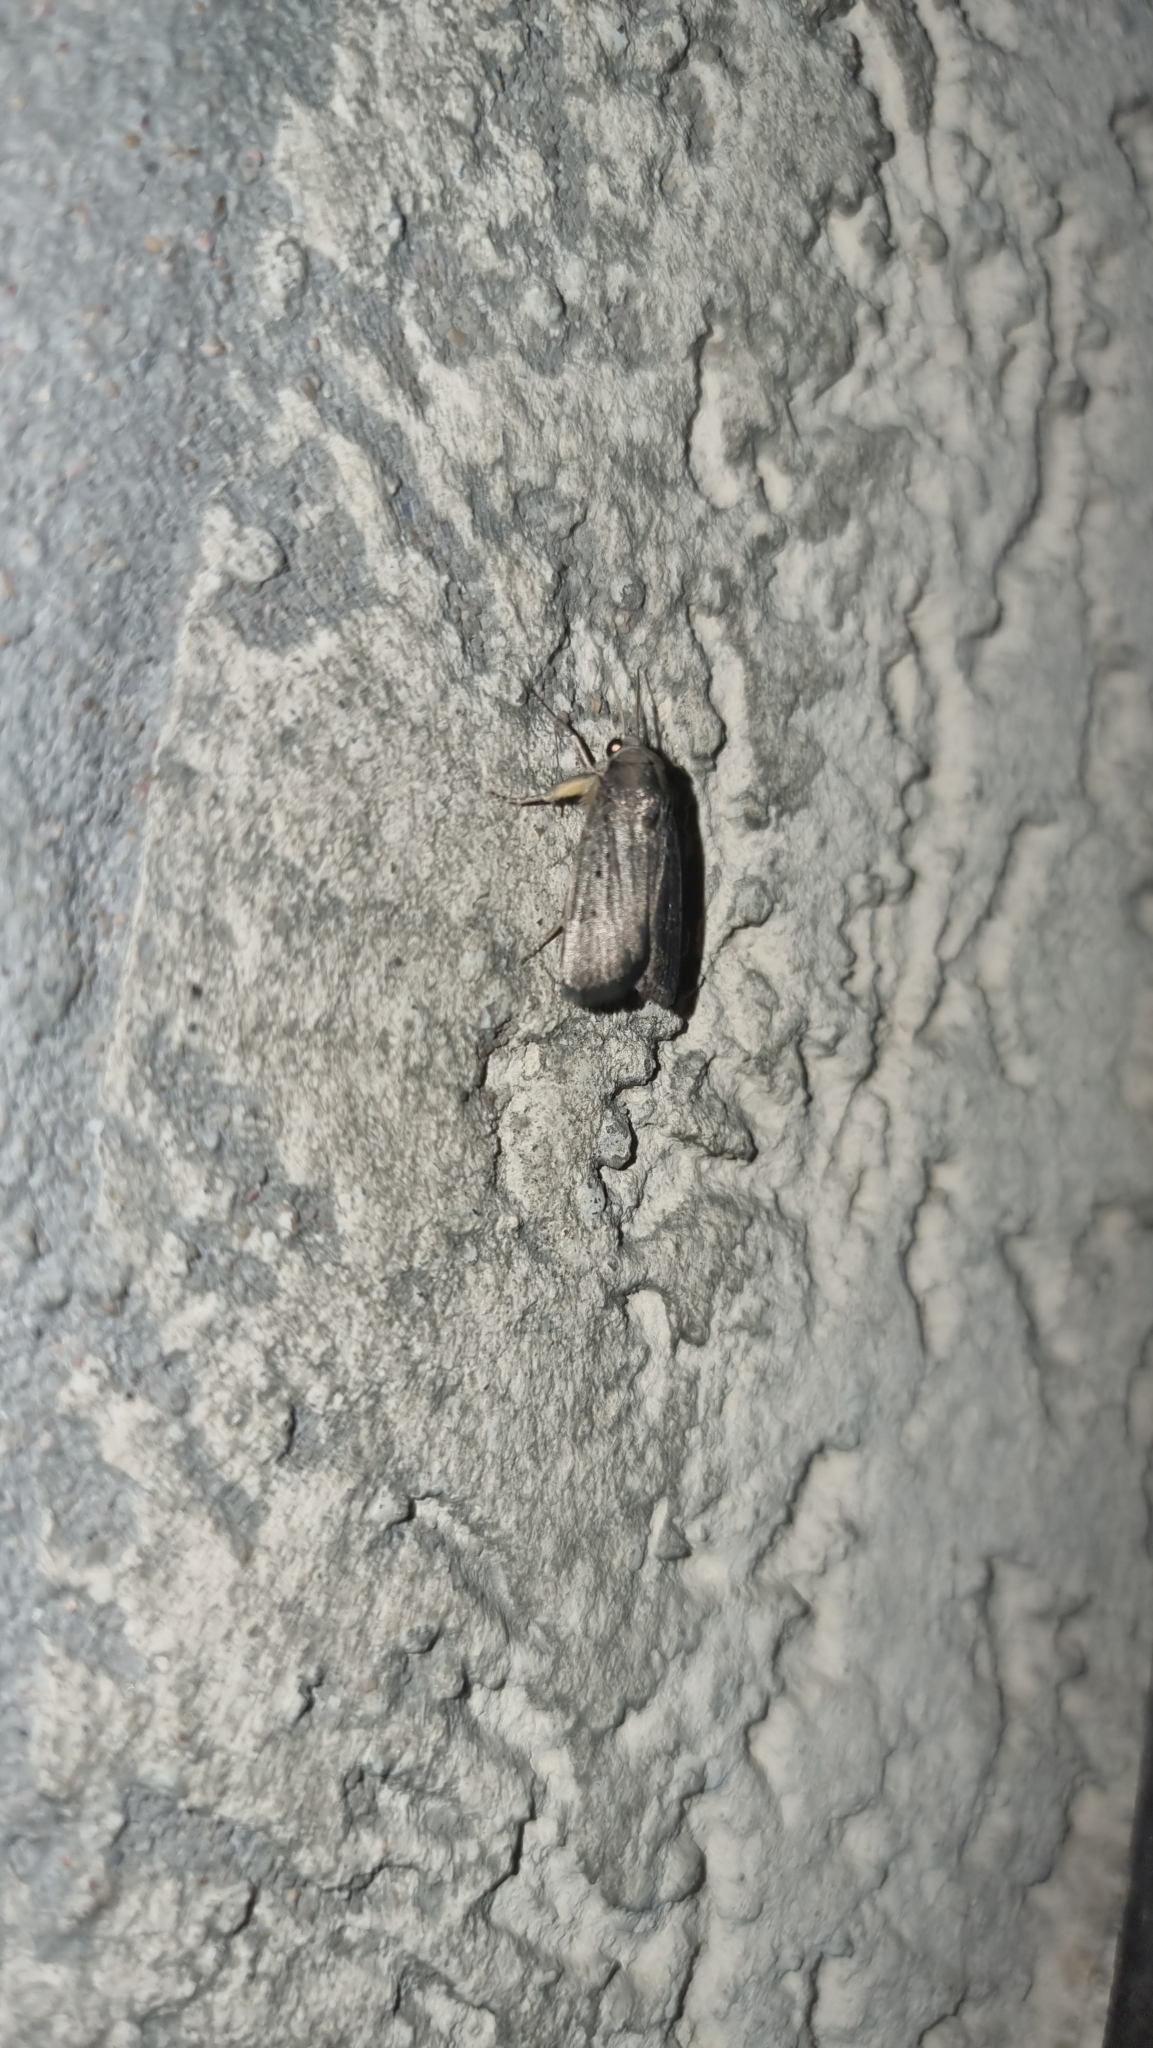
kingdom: Animalia
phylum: Arthropoda
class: Insecta
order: Lepidoptera
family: Noctuidae
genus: Athetis
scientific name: Athetis hospes
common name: Porter's rustic
